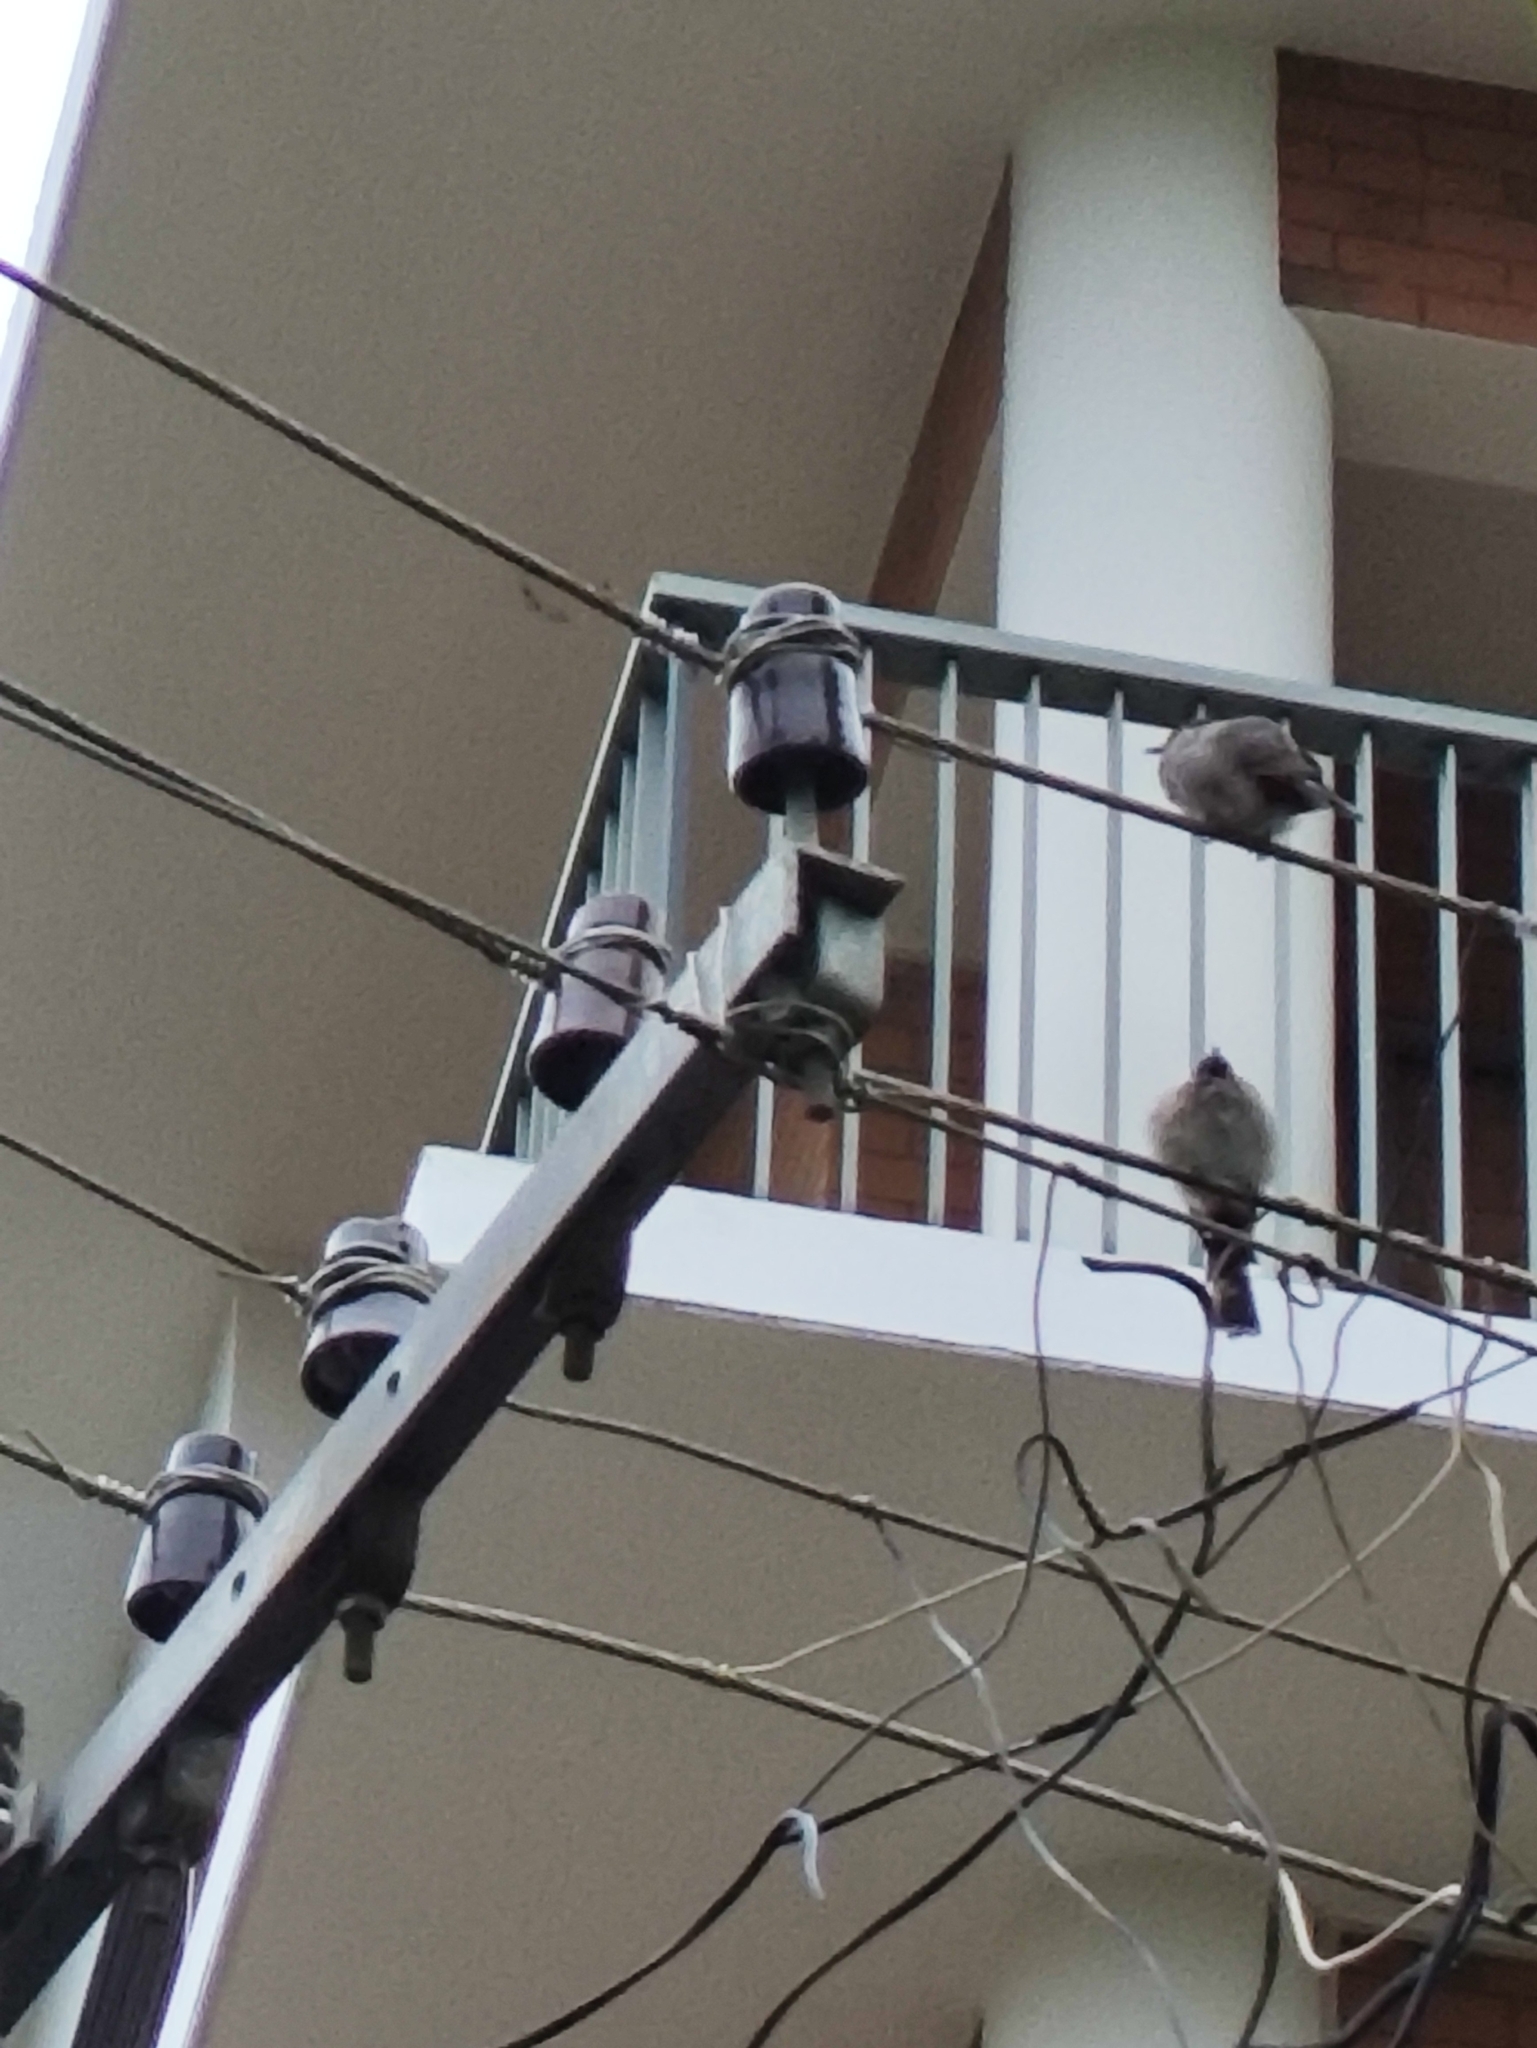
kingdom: Animalia
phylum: Chordata
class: Aves
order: Passeriformes
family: Pycnonotidae
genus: Pycnonotus
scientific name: Pycnonotus cafer
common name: Red-vented bulbul
